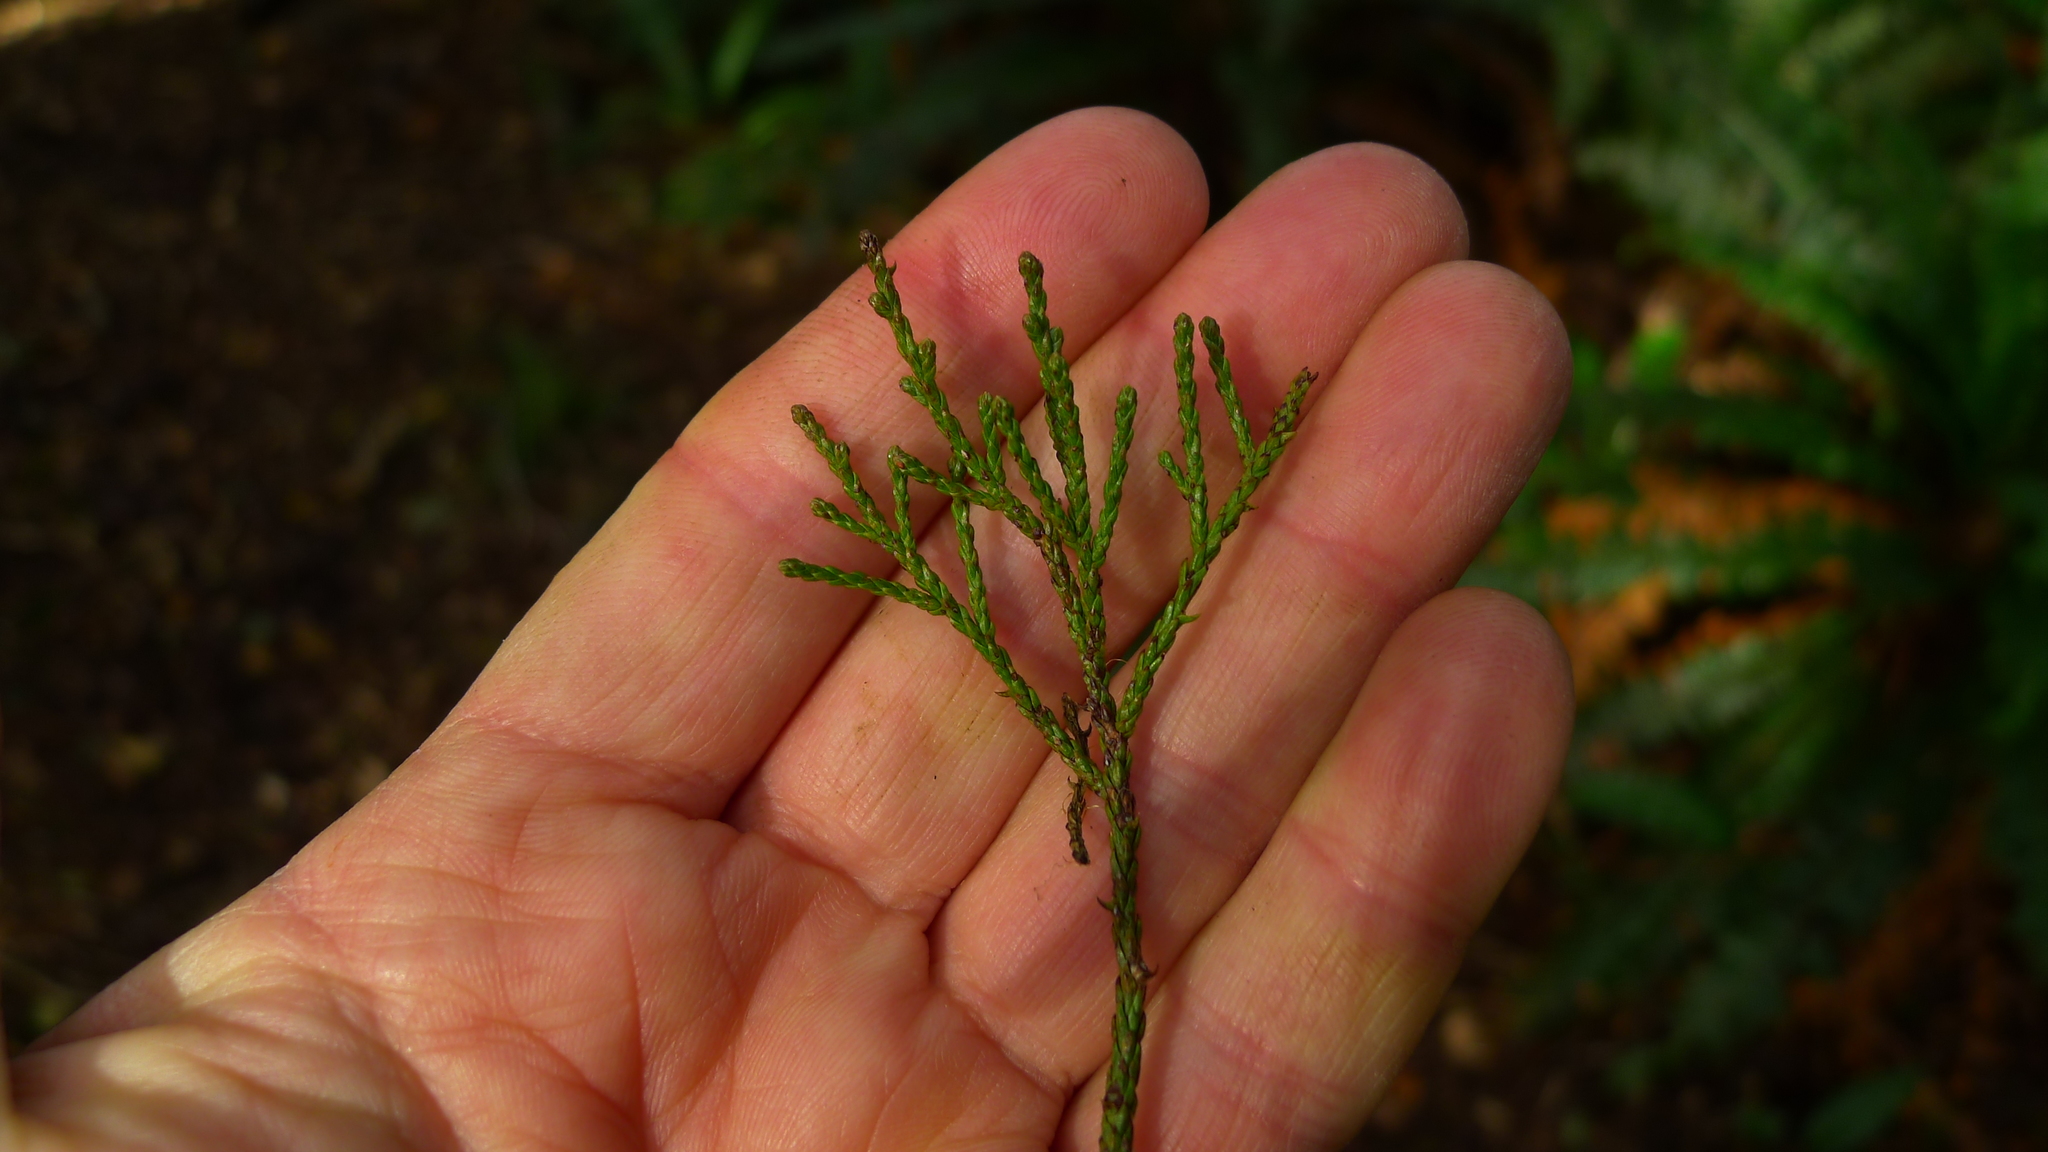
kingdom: Plantae
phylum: Tracheophyta
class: Pinopsida
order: Pinales
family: Podocarpaceae
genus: Dacrycarpus
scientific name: Dacrycarpus dacrydioides
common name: White pine
